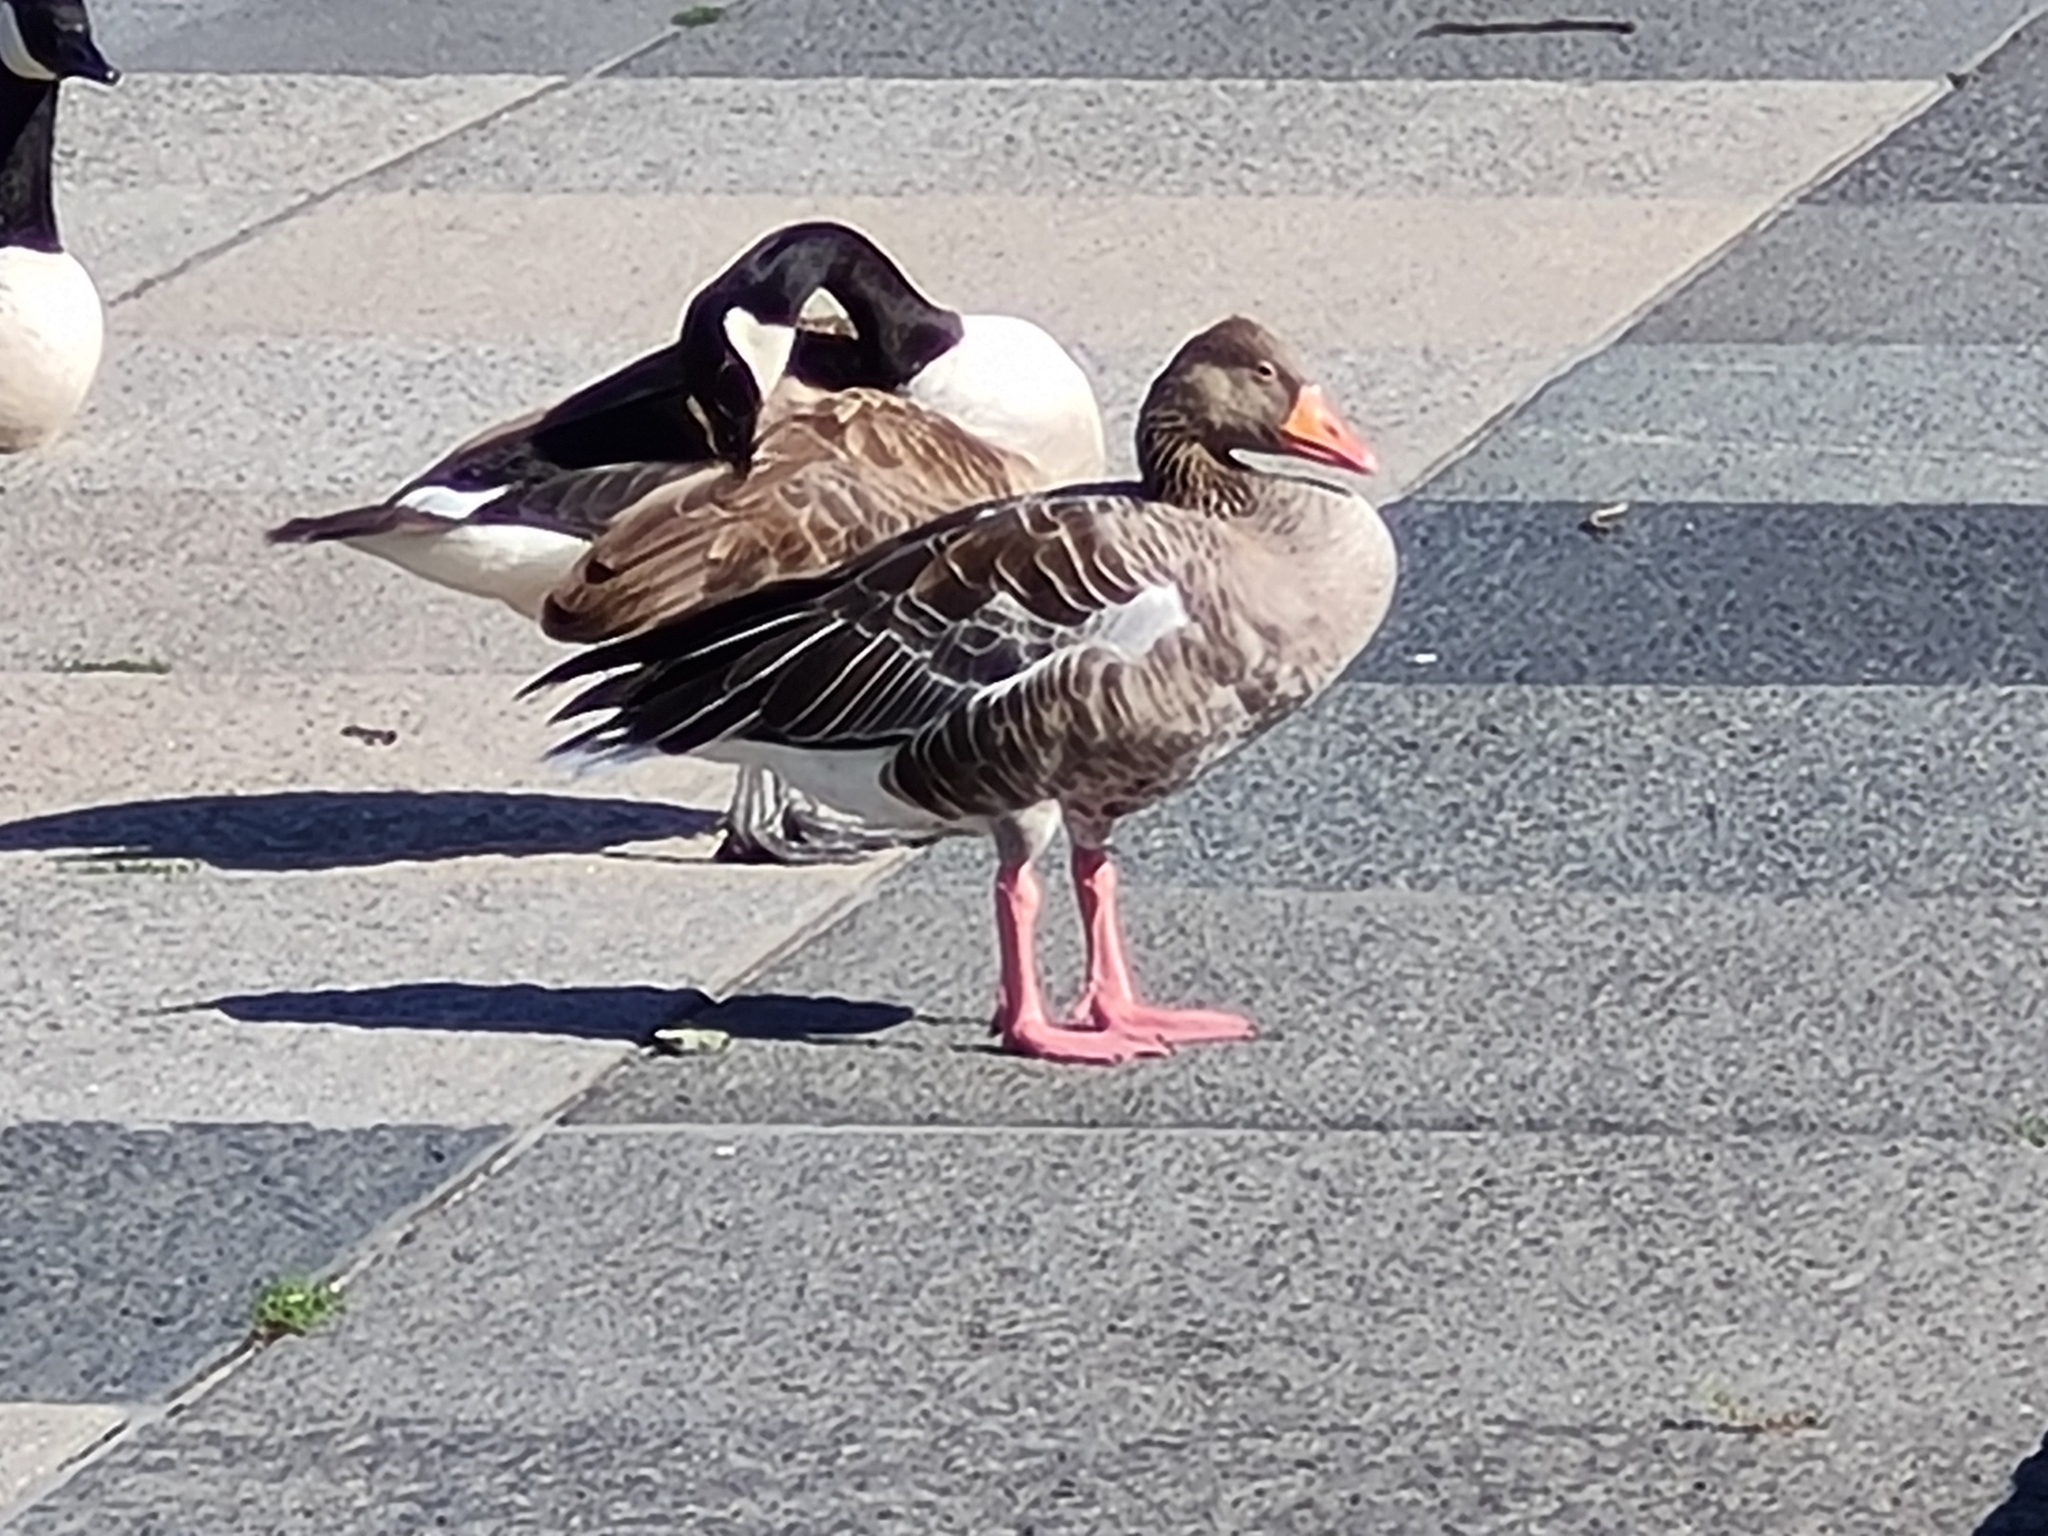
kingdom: Animalia
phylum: Chordata
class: Aves
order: Anseriformes
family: Anatidae
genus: Anser
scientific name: Anser anser
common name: Greylag goose
